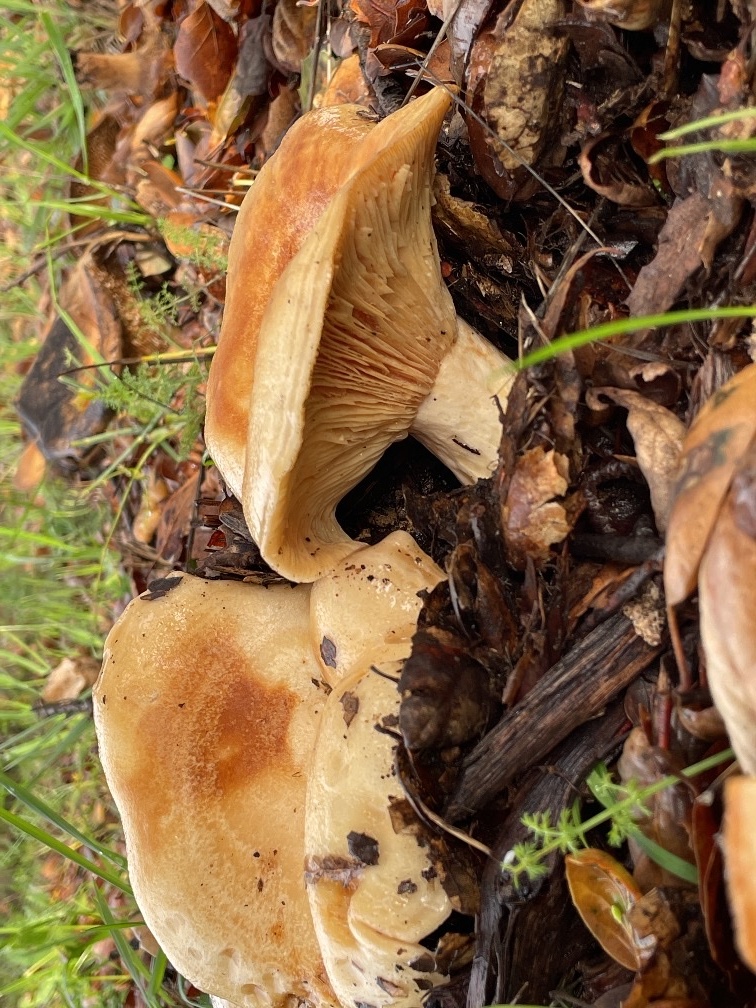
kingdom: Fungi
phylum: Basidiomycota
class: Agaricomycetes
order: Russulales
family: Russulaceae
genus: Lactarius
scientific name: Lactarius alnicola
